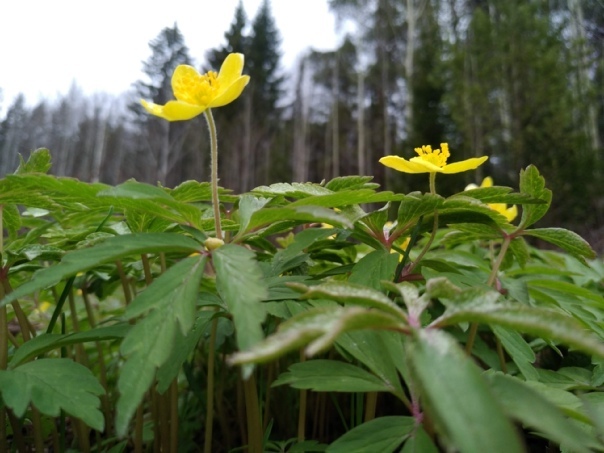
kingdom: Plantae
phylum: Tracheophyta
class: Magnoliopsida
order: Ranunculales
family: Ranunculaceae
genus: Anemone
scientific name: Anemone ranunculoides
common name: Yellow anemone
